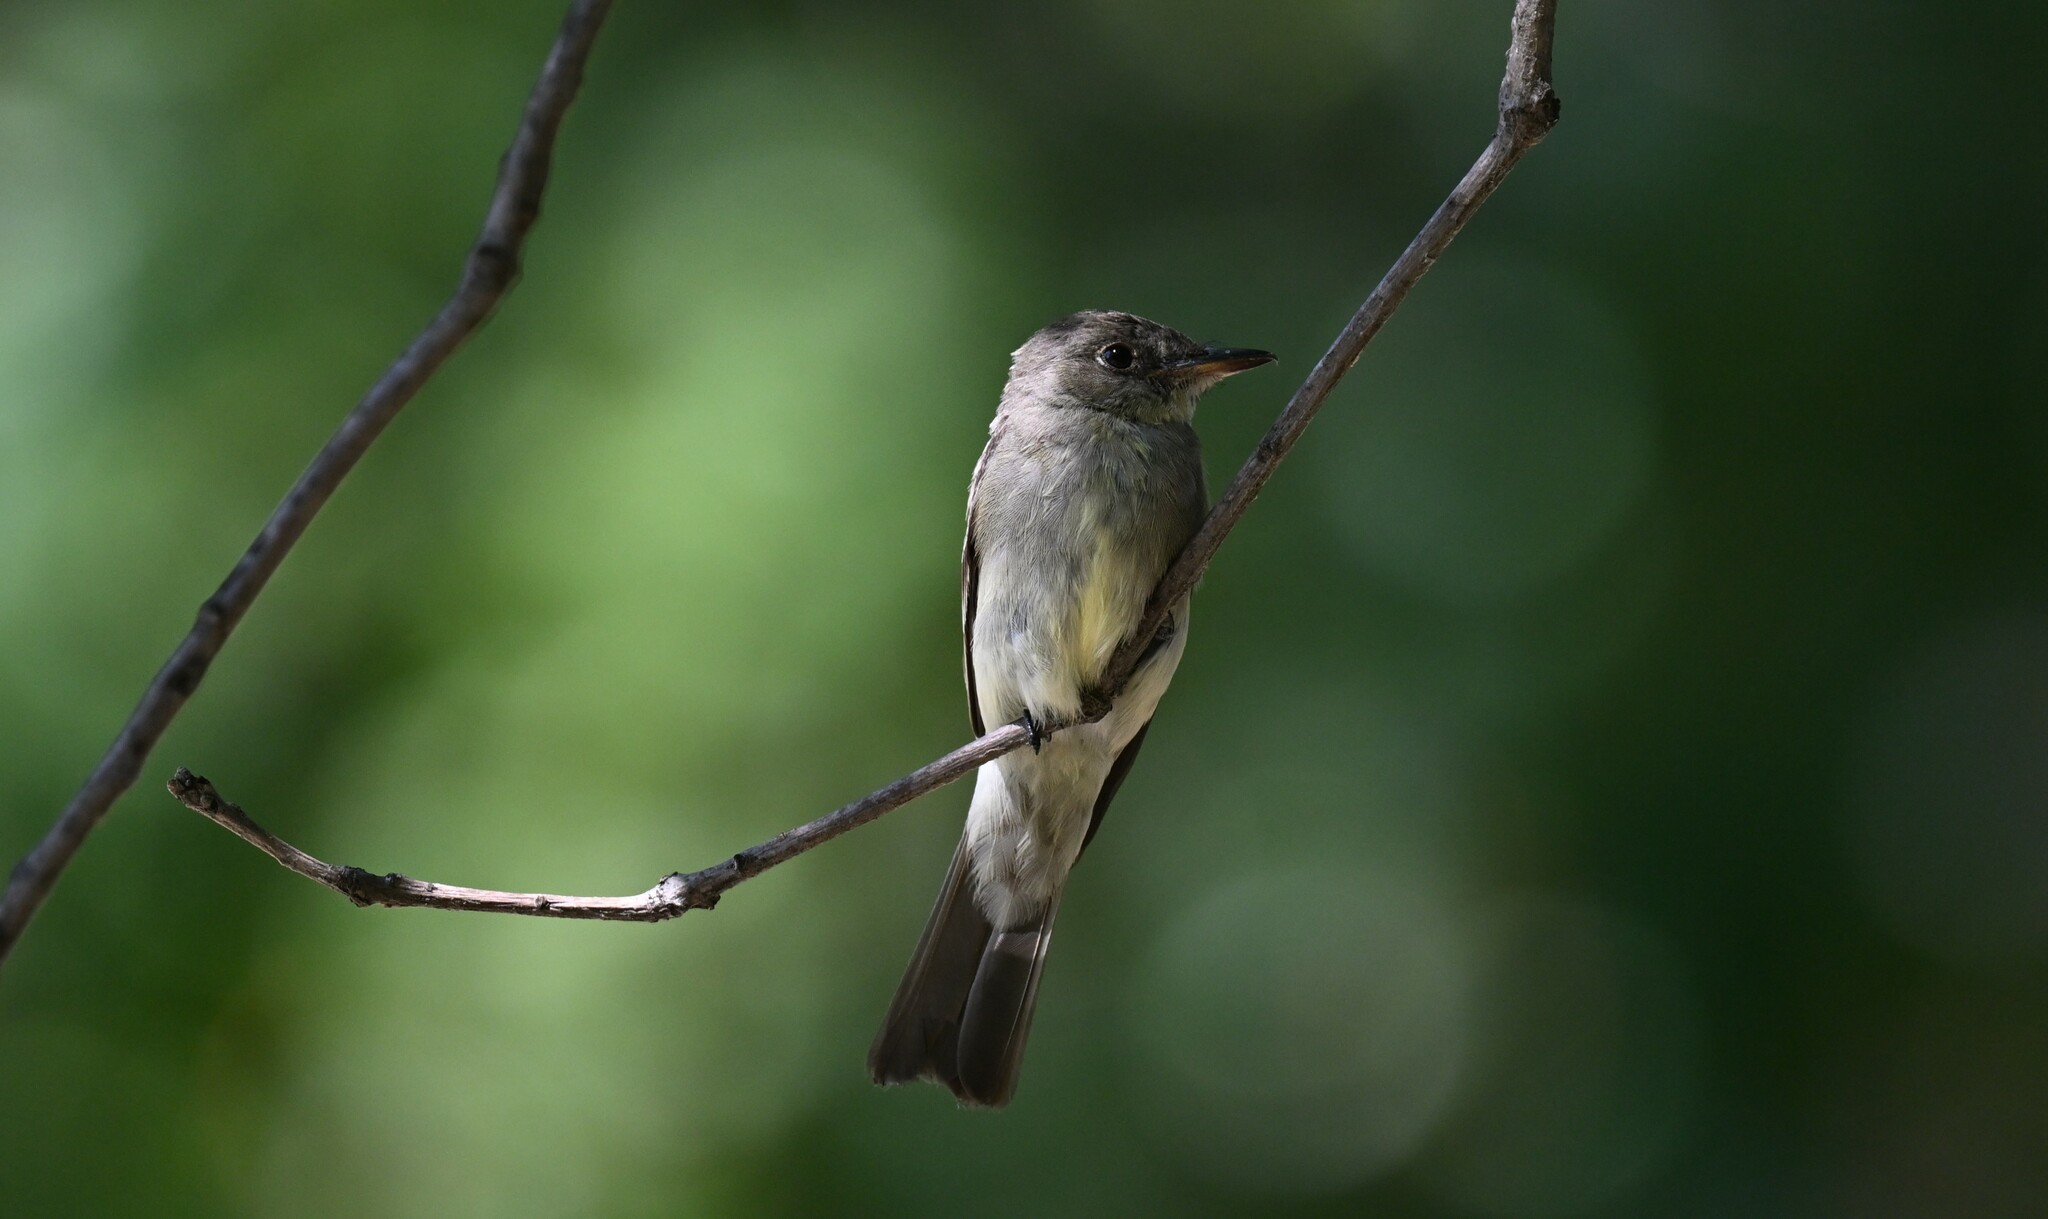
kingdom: Animalia
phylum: Chordata
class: Aves
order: Passeriformes
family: Tyrannidae
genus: Contopus
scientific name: Contopus virens
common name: Eastern wood-pewee
